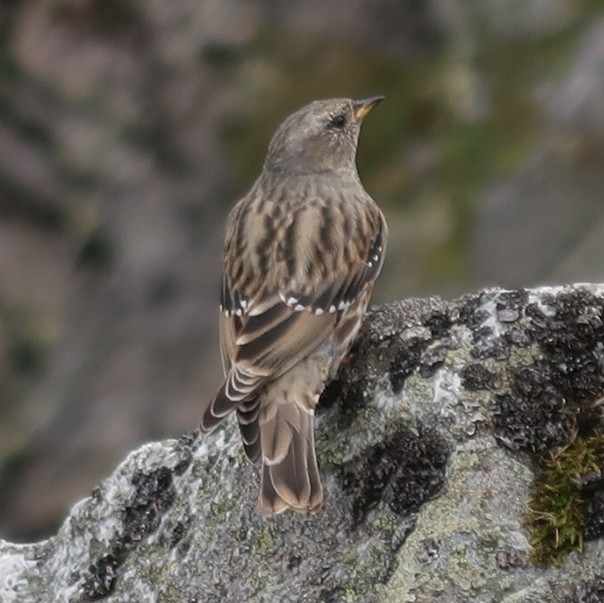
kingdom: Animalia
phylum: Chordata
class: Aves
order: Passeriformes
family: Prunellidae
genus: Prunella
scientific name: Prunella collaris
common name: Alpine accentor
